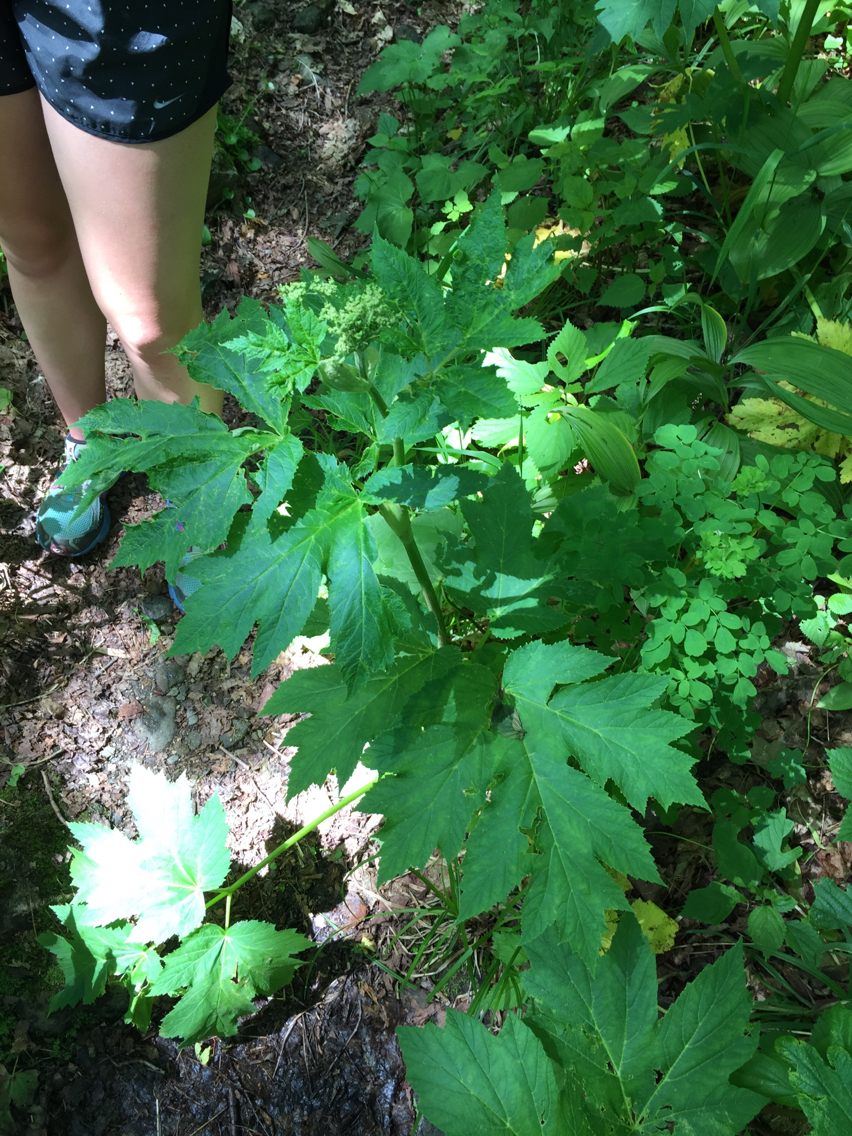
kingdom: Plantae
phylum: Tracheophyta
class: Magnoliopsida
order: Apiales
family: Apiaceae
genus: Heracleum
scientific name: Heracleum maximum
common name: American cow parsnip
